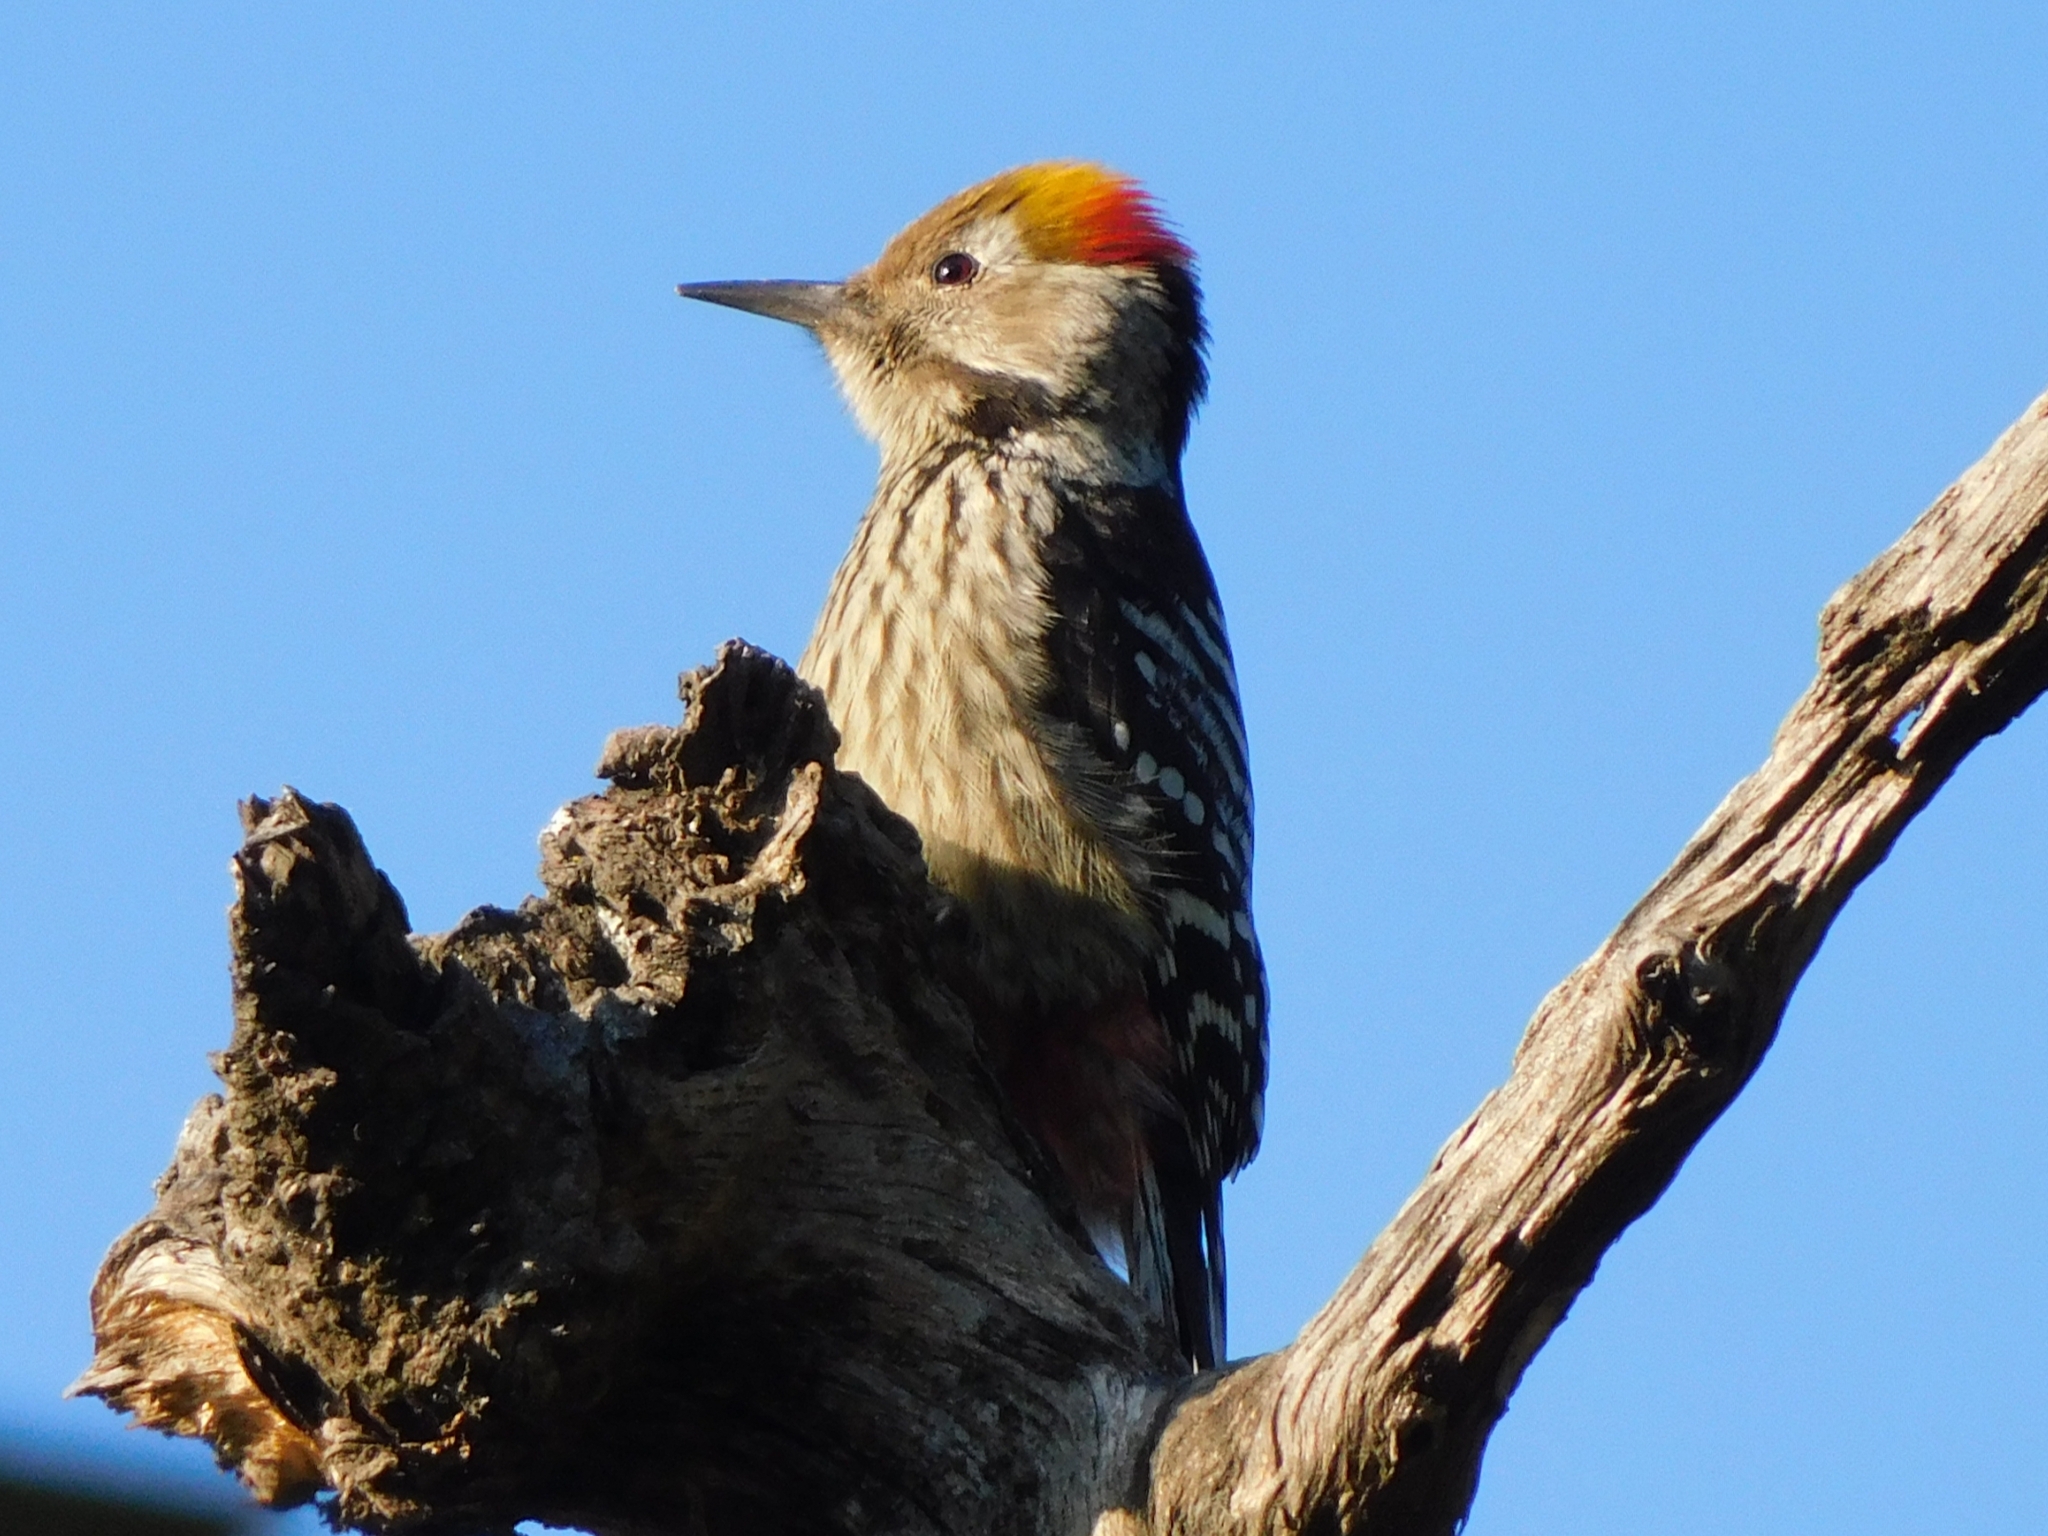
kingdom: Animalia
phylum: Chordata
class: Aves
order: Piciformes
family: Picidae
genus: Dendrocoptes
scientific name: Dendrocoptes auriceps
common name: Brown-fronted woodpecker
